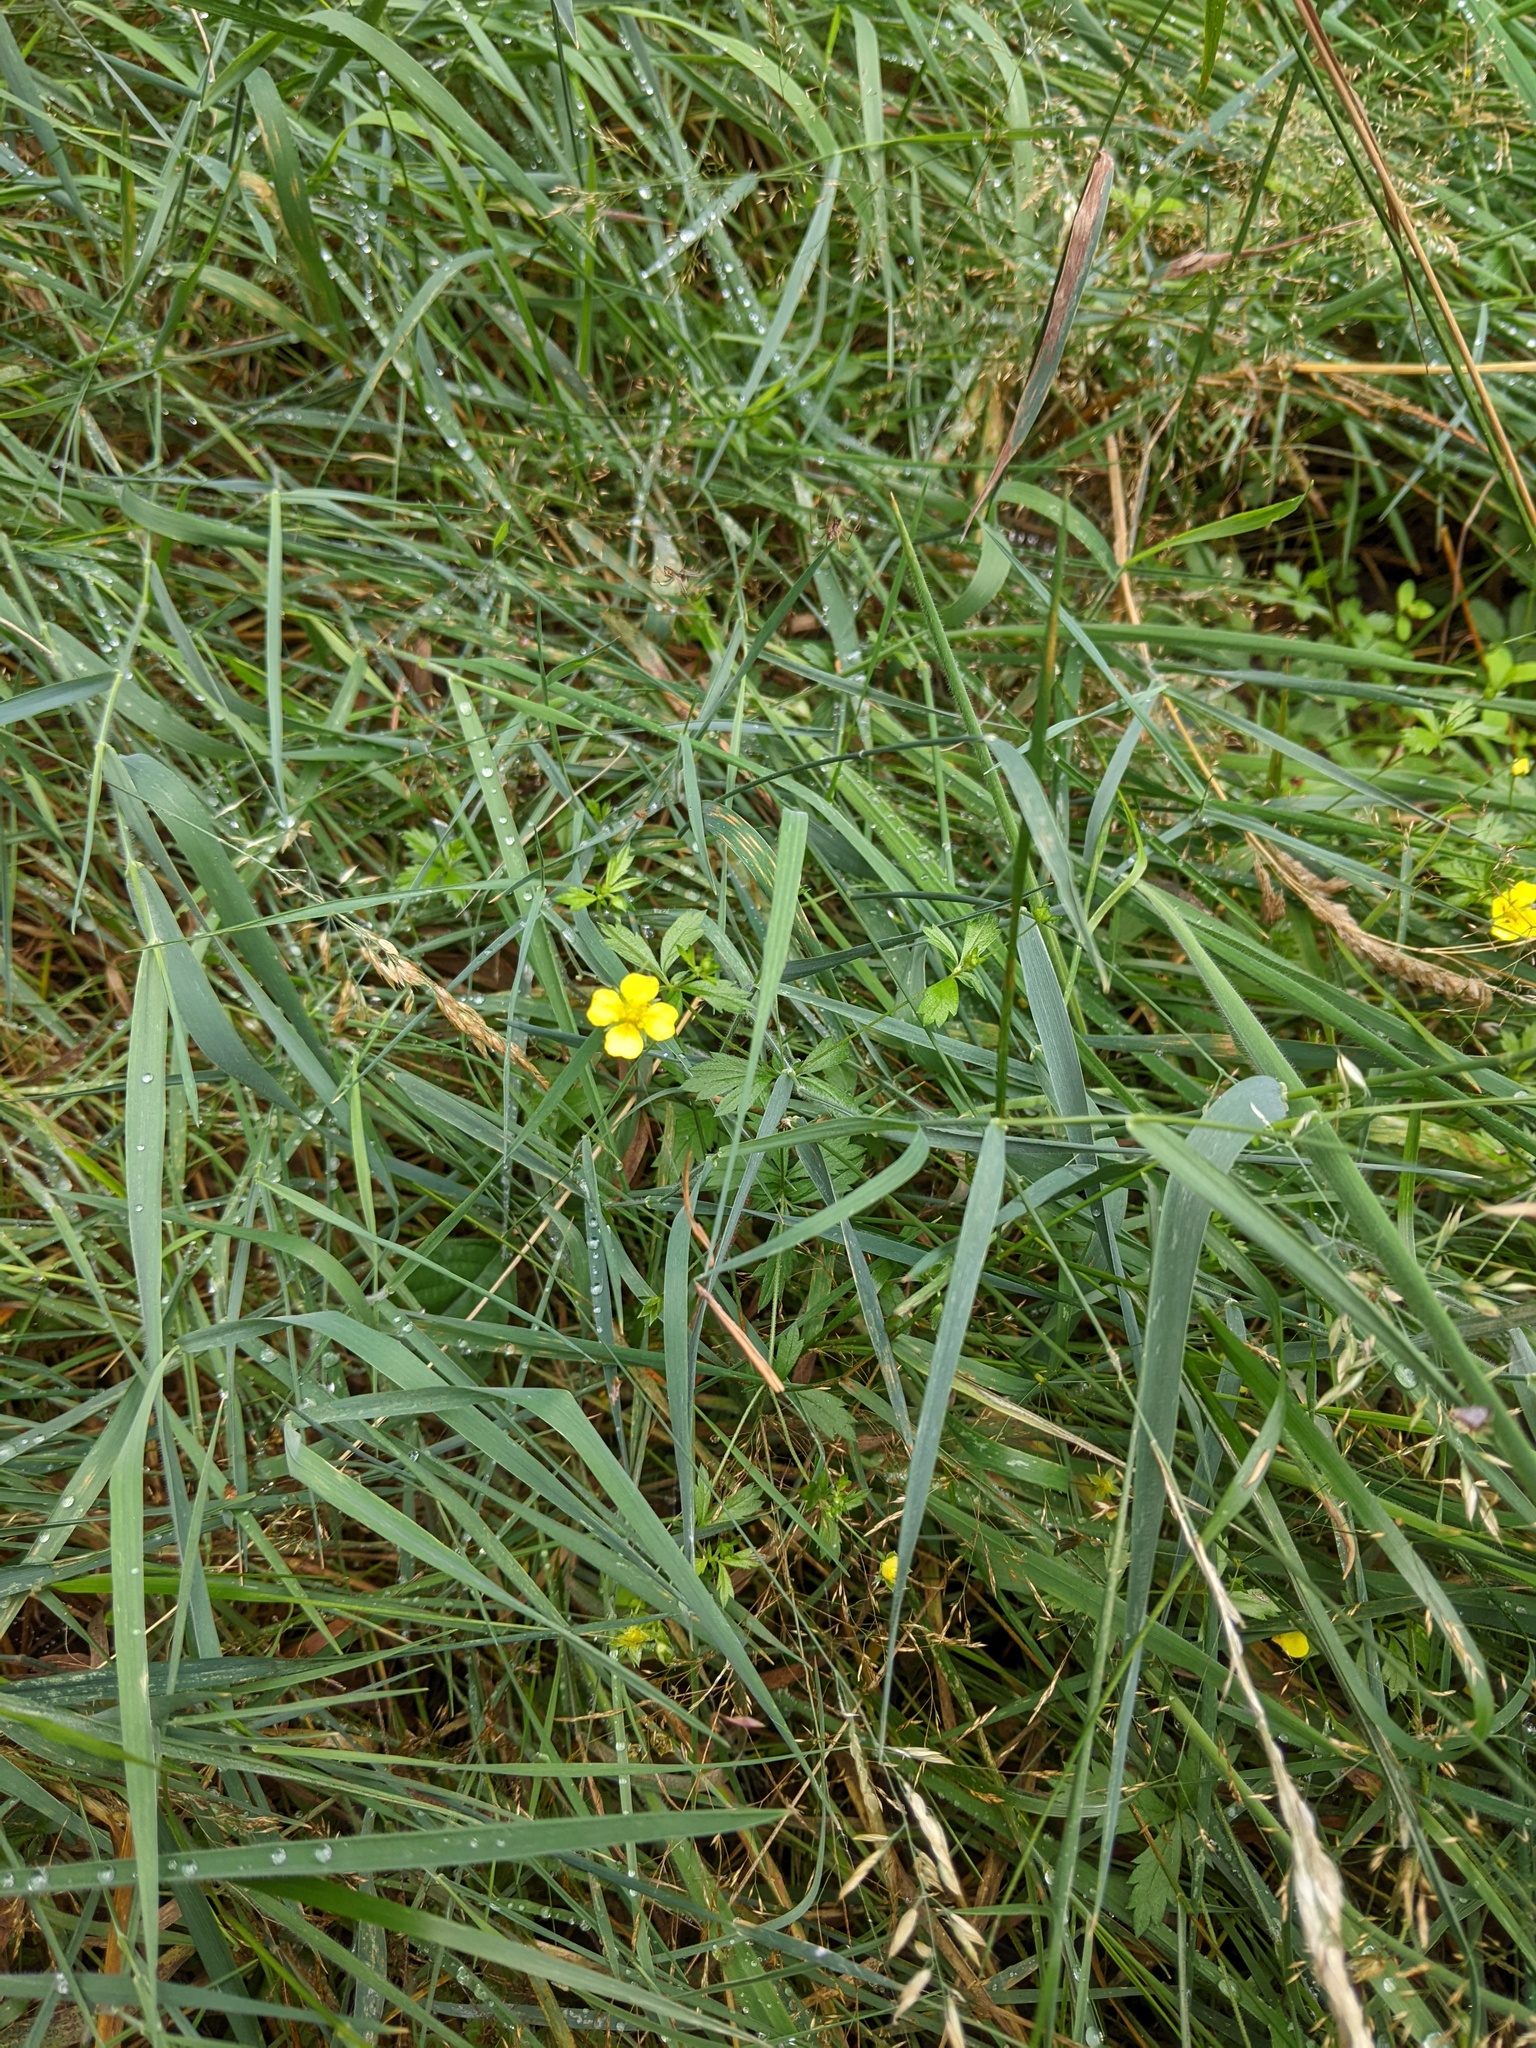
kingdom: Plantae
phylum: Tracheophyta
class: Magnoliopsida
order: Rosales
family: Rosaceae
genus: Potentilla
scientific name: Potentilla erecta
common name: Tormentil
